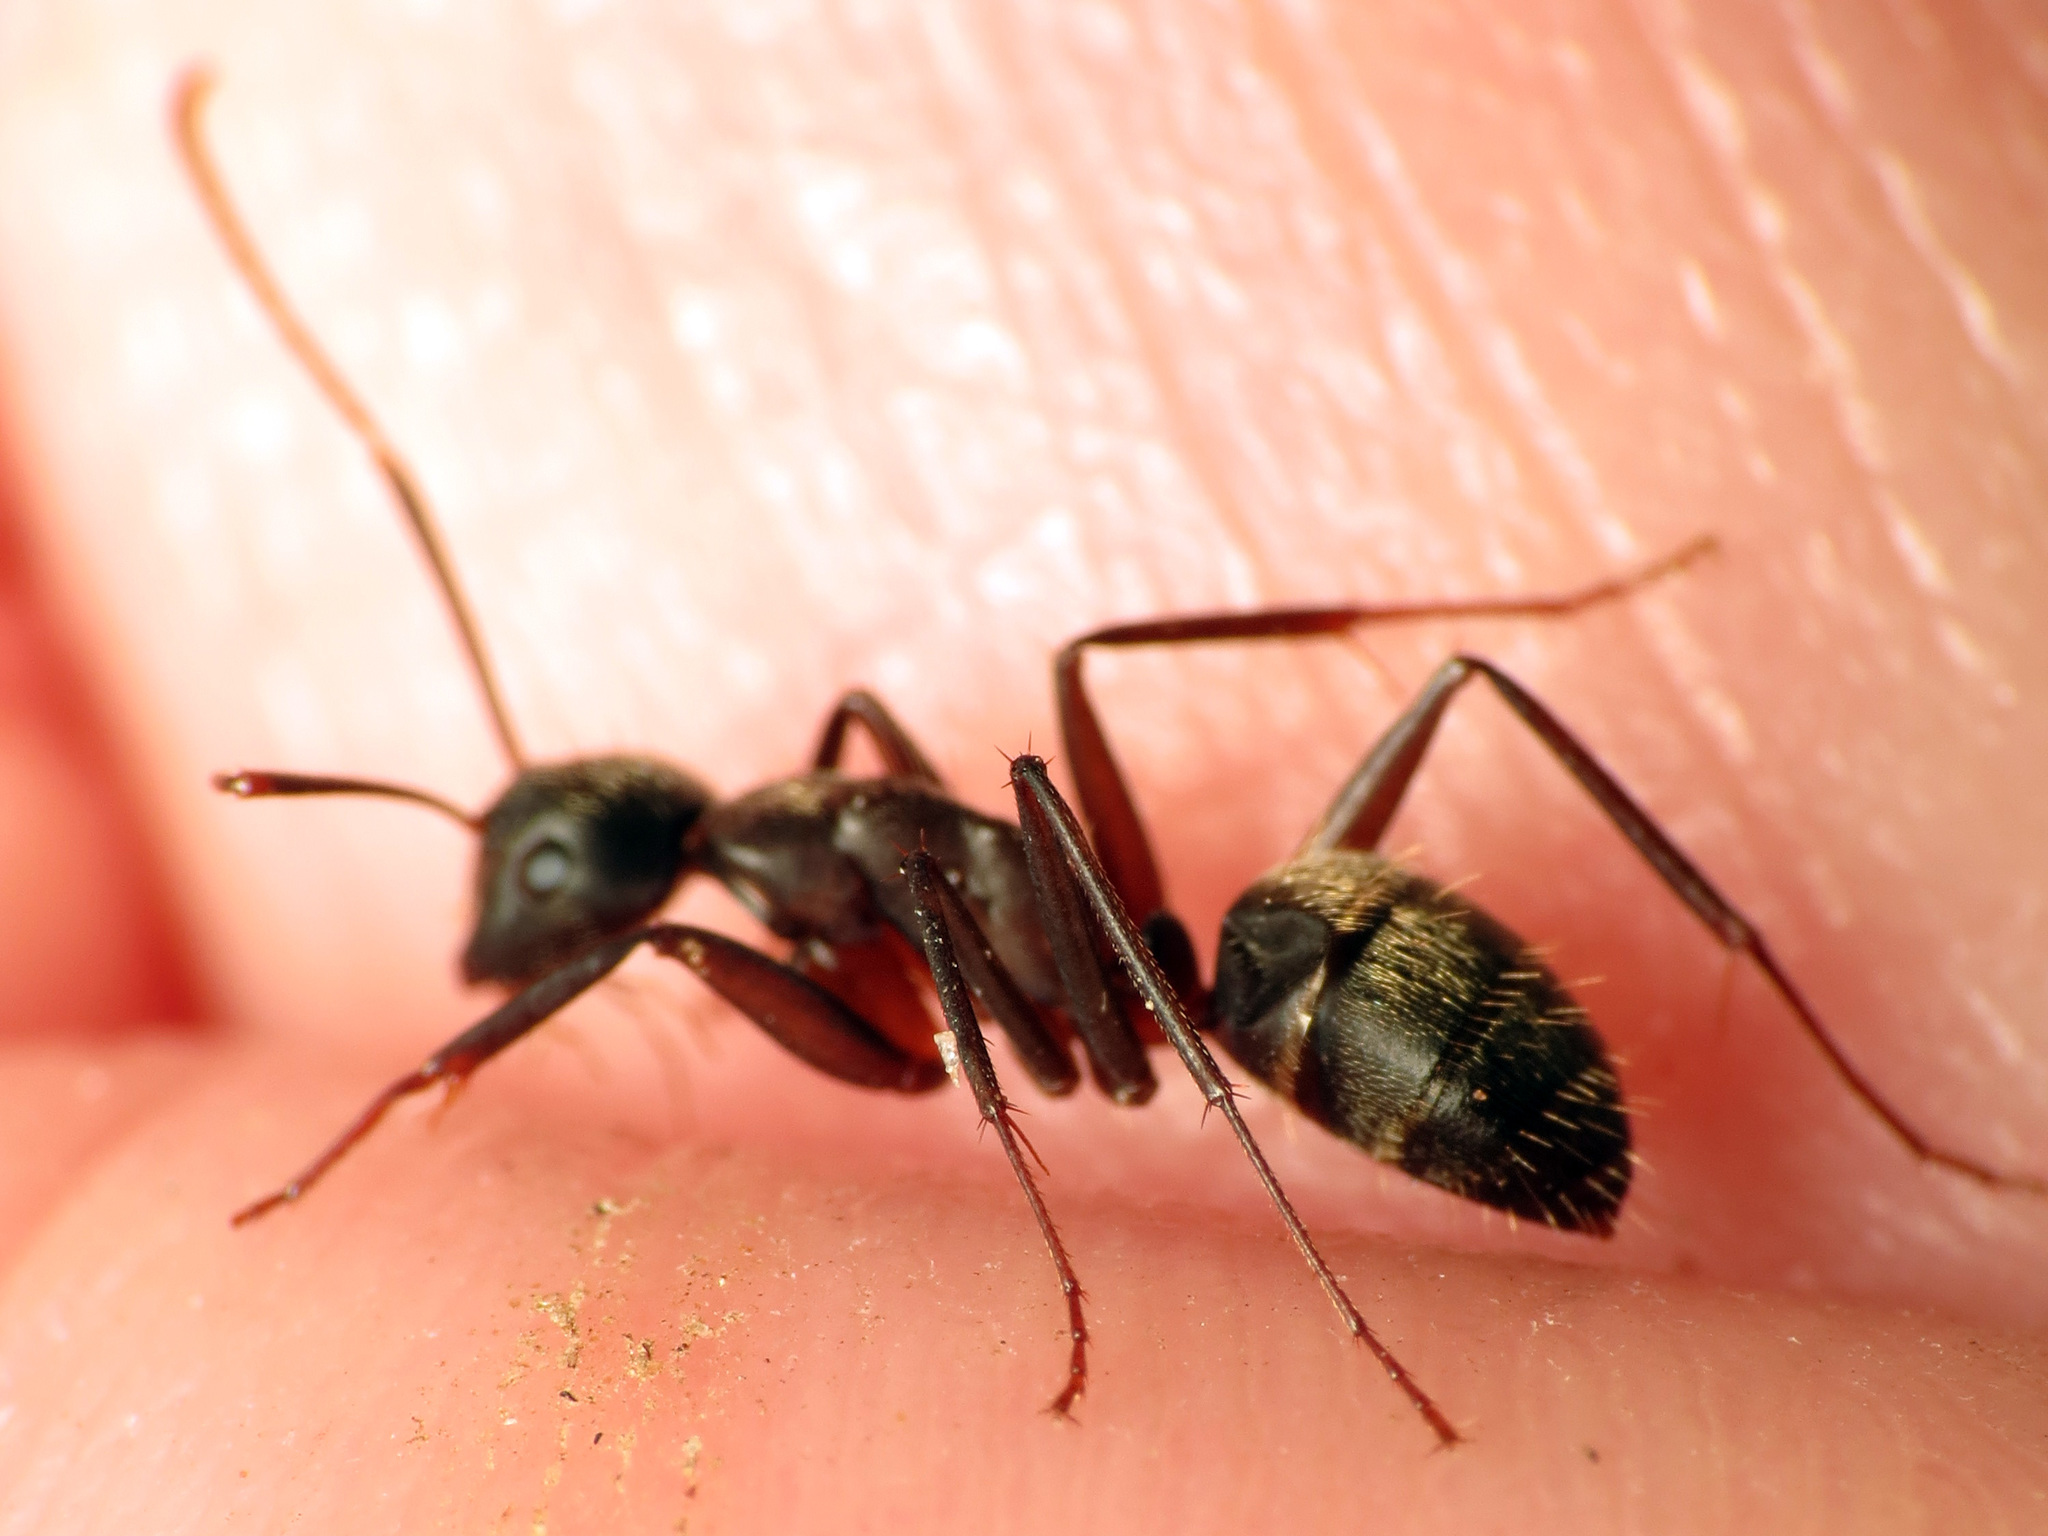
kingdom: Animalia
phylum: Arthropoda
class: Insecta
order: Hymenoptera
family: Formicidae
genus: Camponotus
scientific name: Camponotus pennsylvanicus
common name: Black carpenter ant
